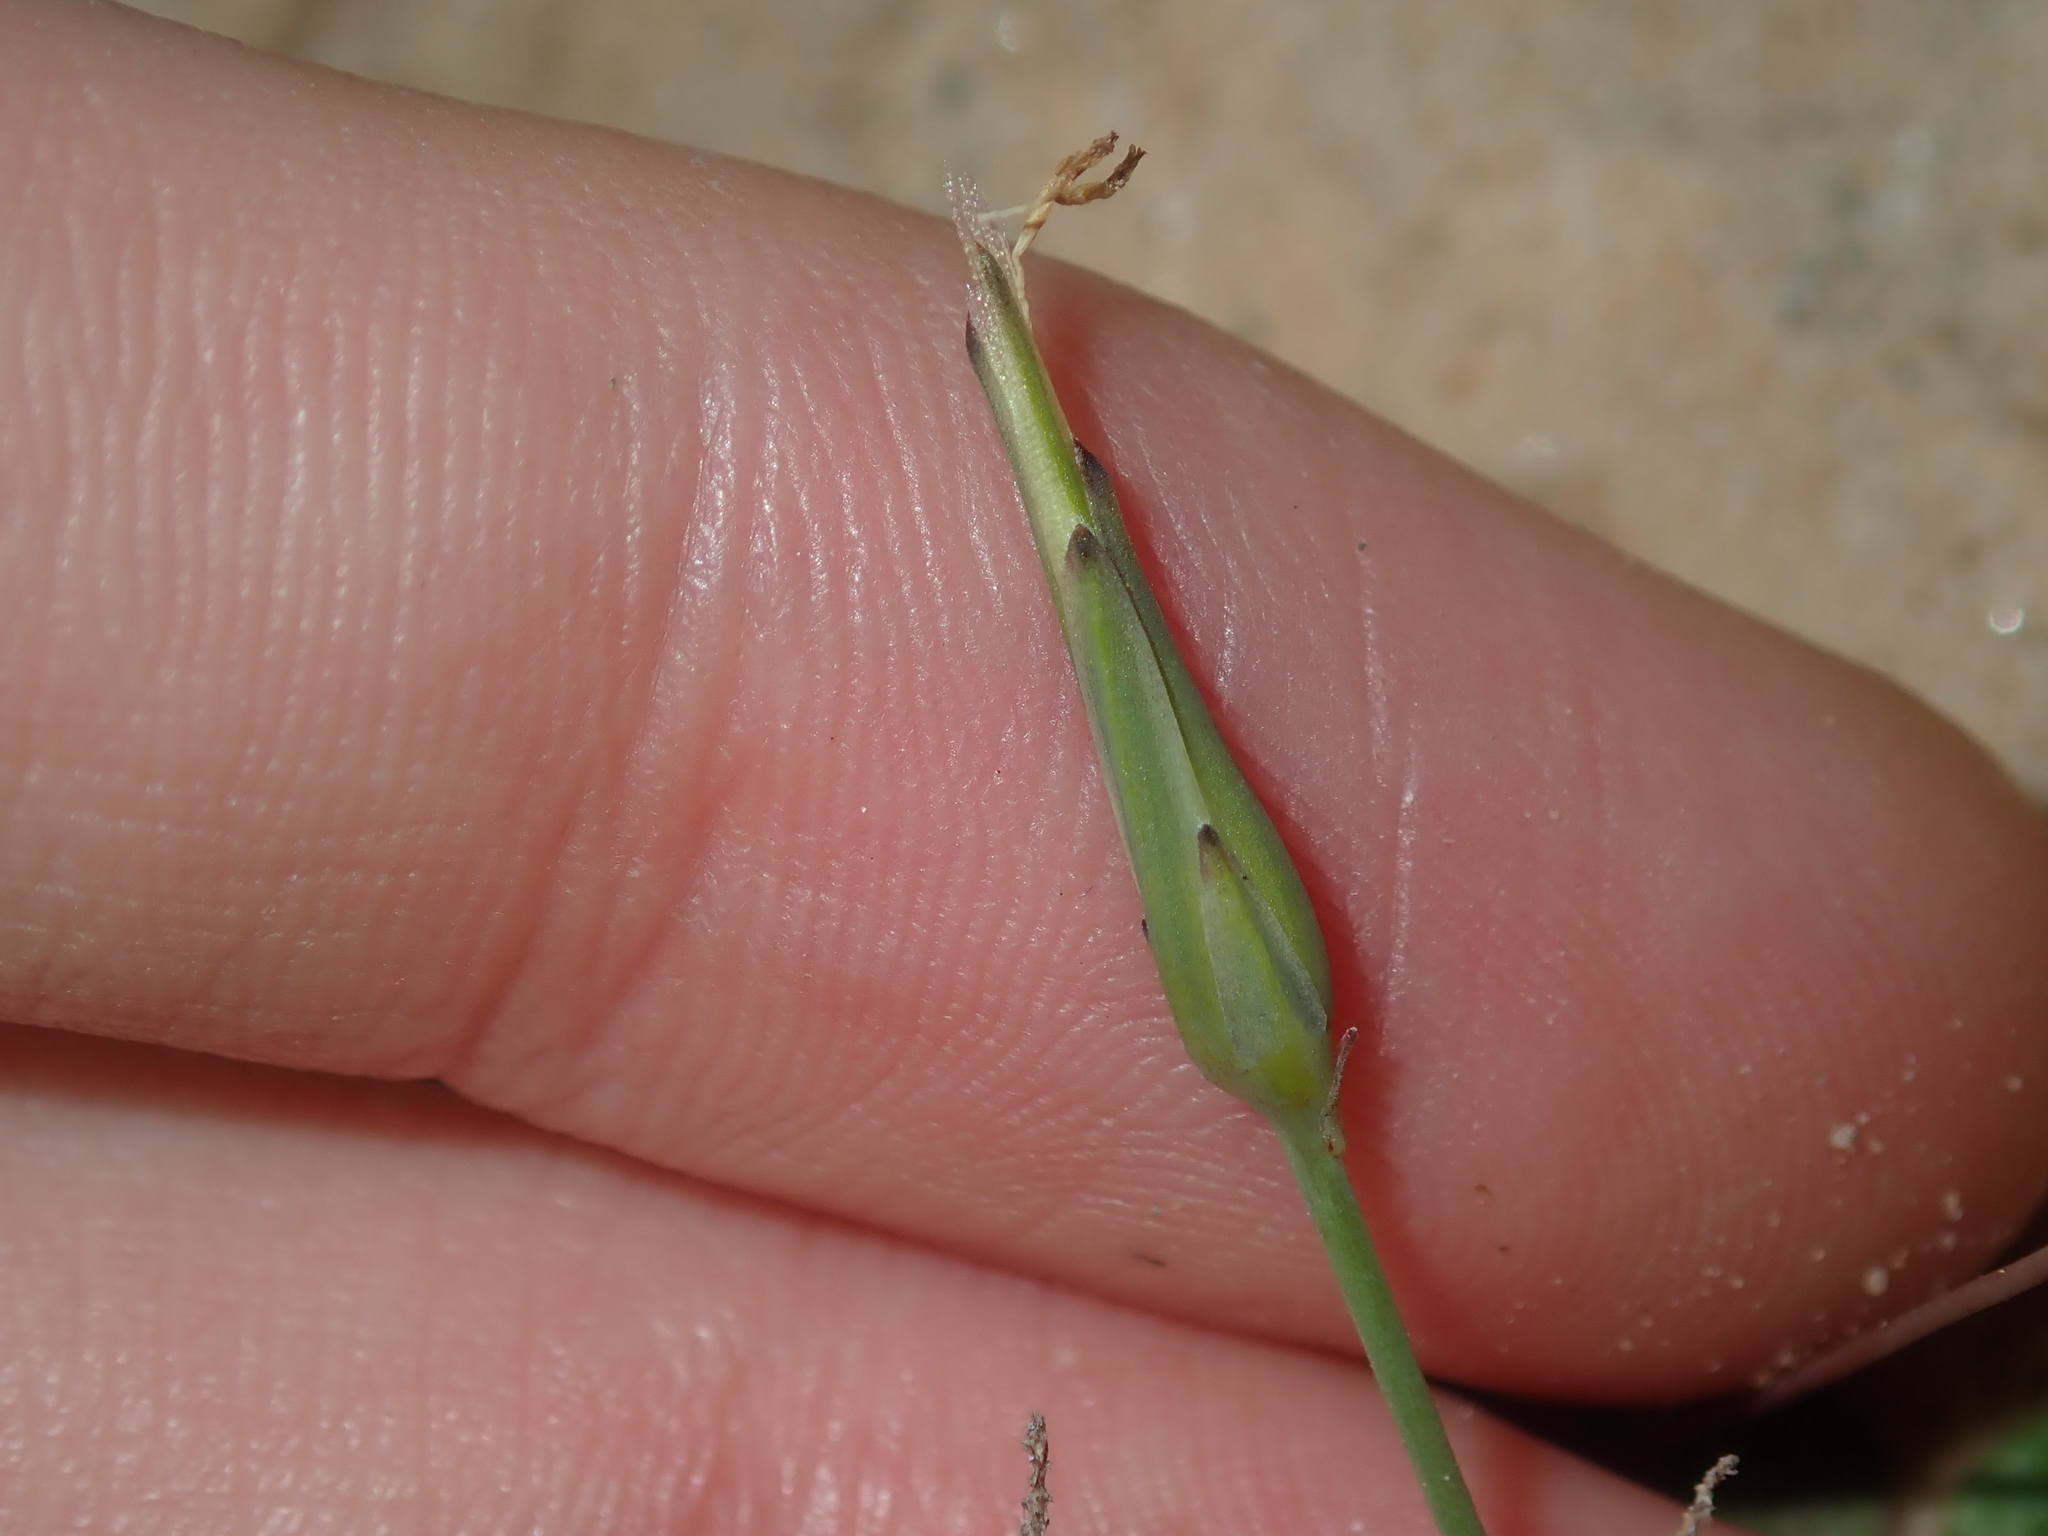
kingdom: Plantae
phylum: Tracheophyta
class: Magnoliopsida
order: Asterales
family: Asteraceae
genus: Hypochaeris
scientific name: Hypochaeris glabra
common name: Smooth catsear
